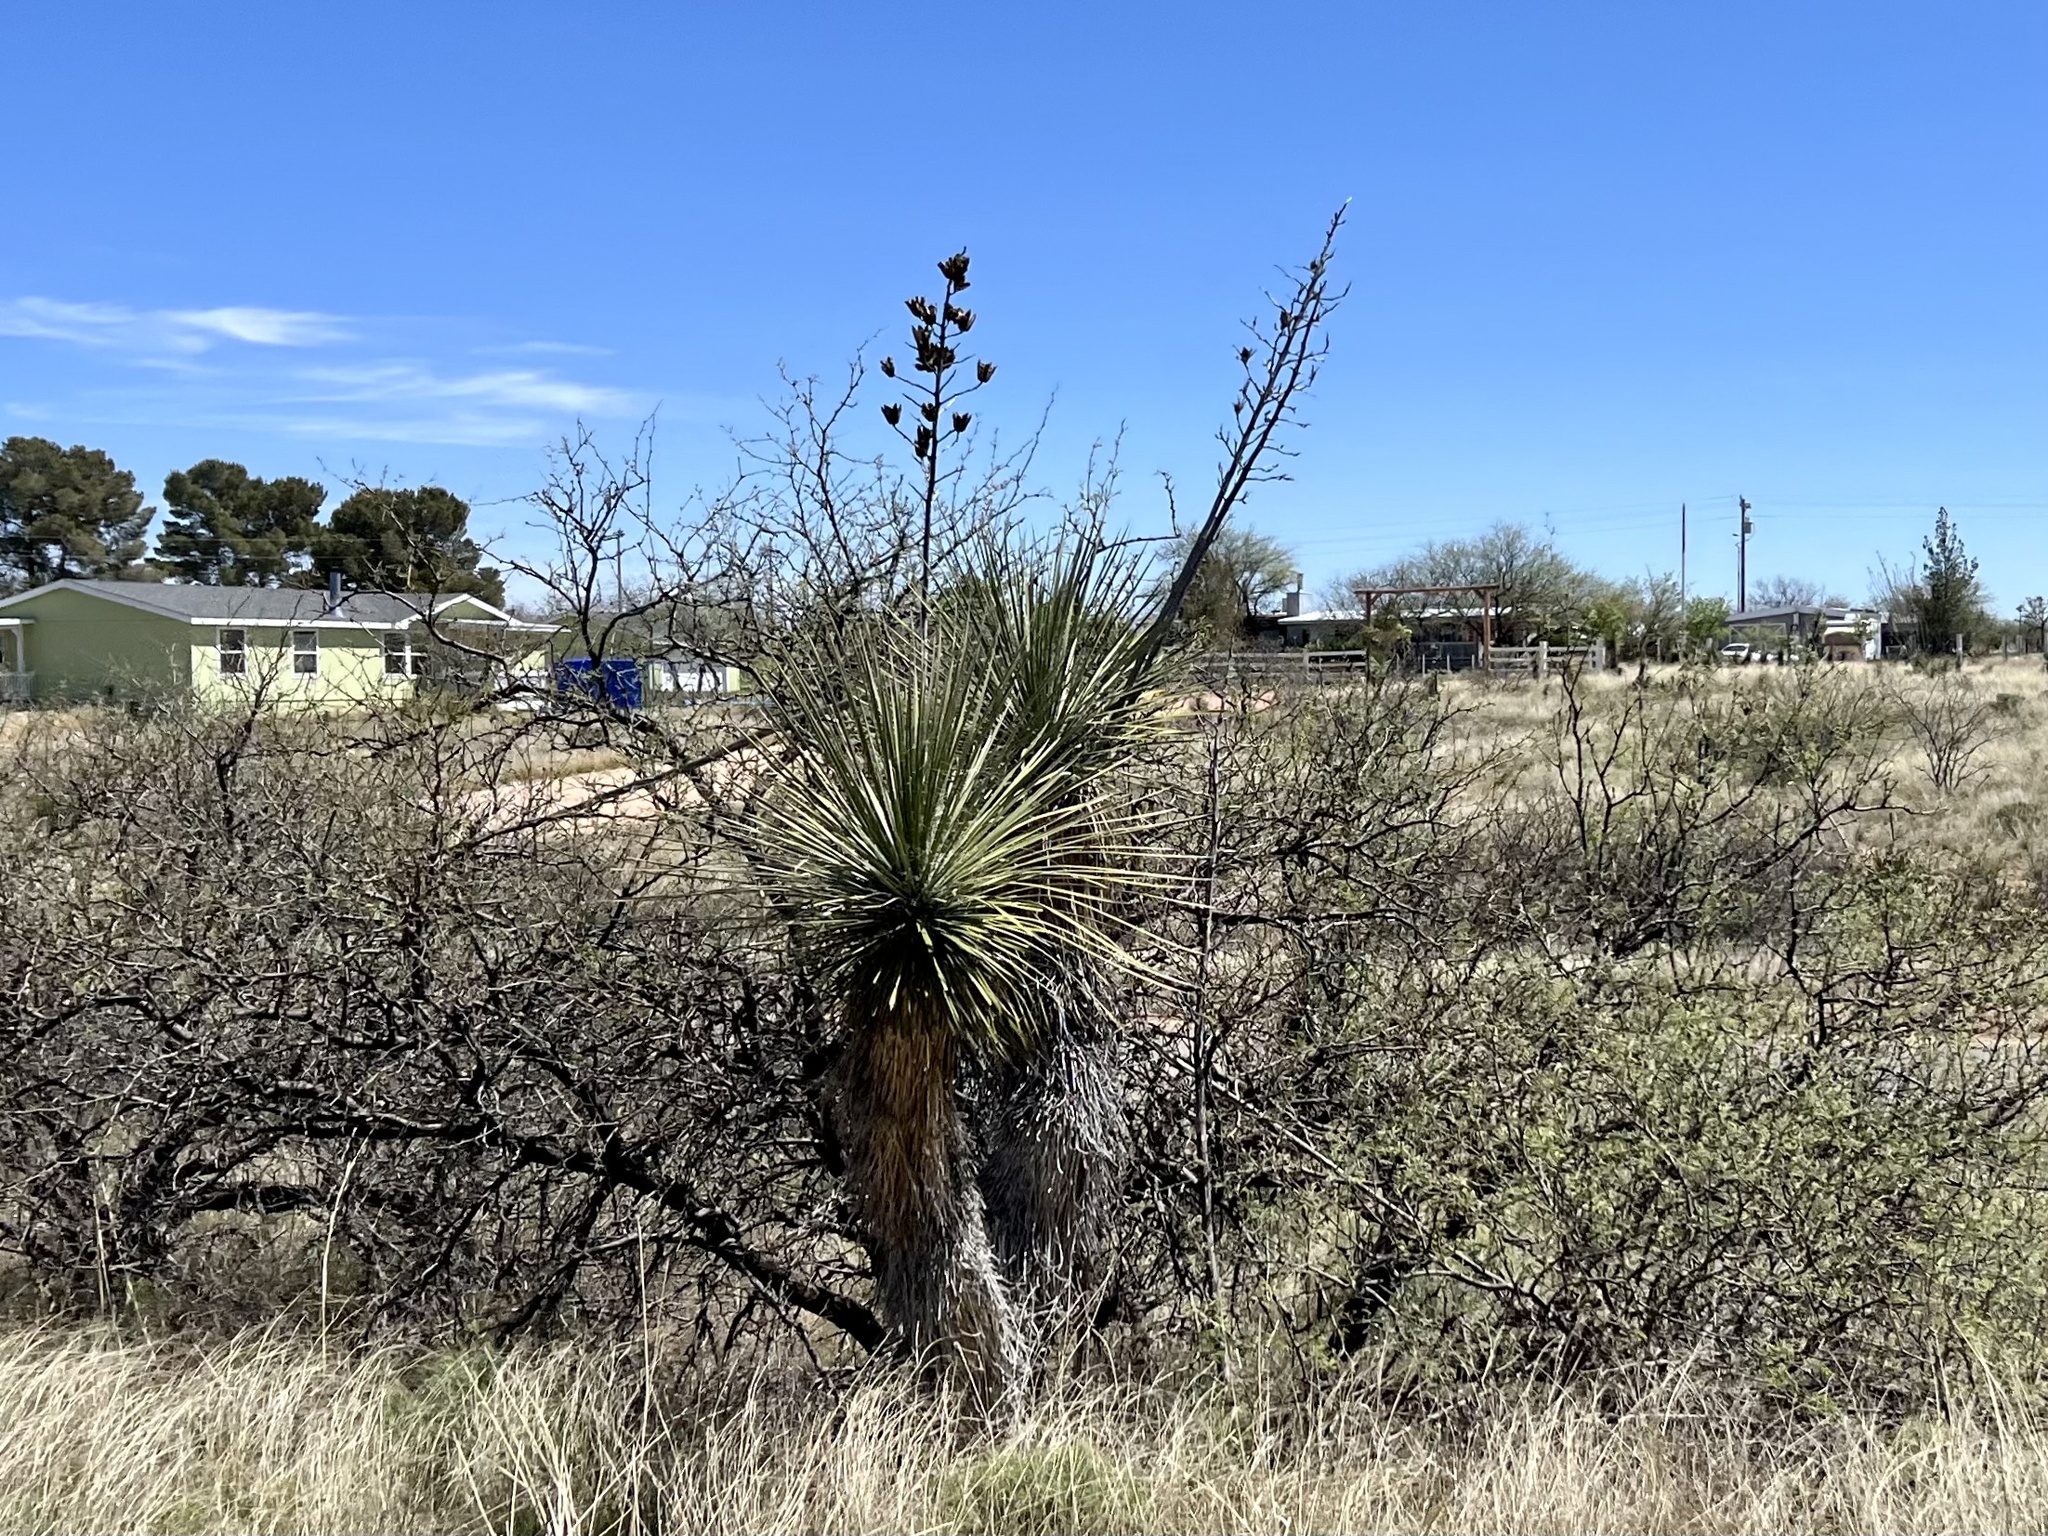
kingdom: Plantae
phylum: Tracheophyta
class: Liliopsida
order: Asparagales
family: Asparagaceae
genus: Yucca
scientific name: Yucca elata
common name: Palmella
